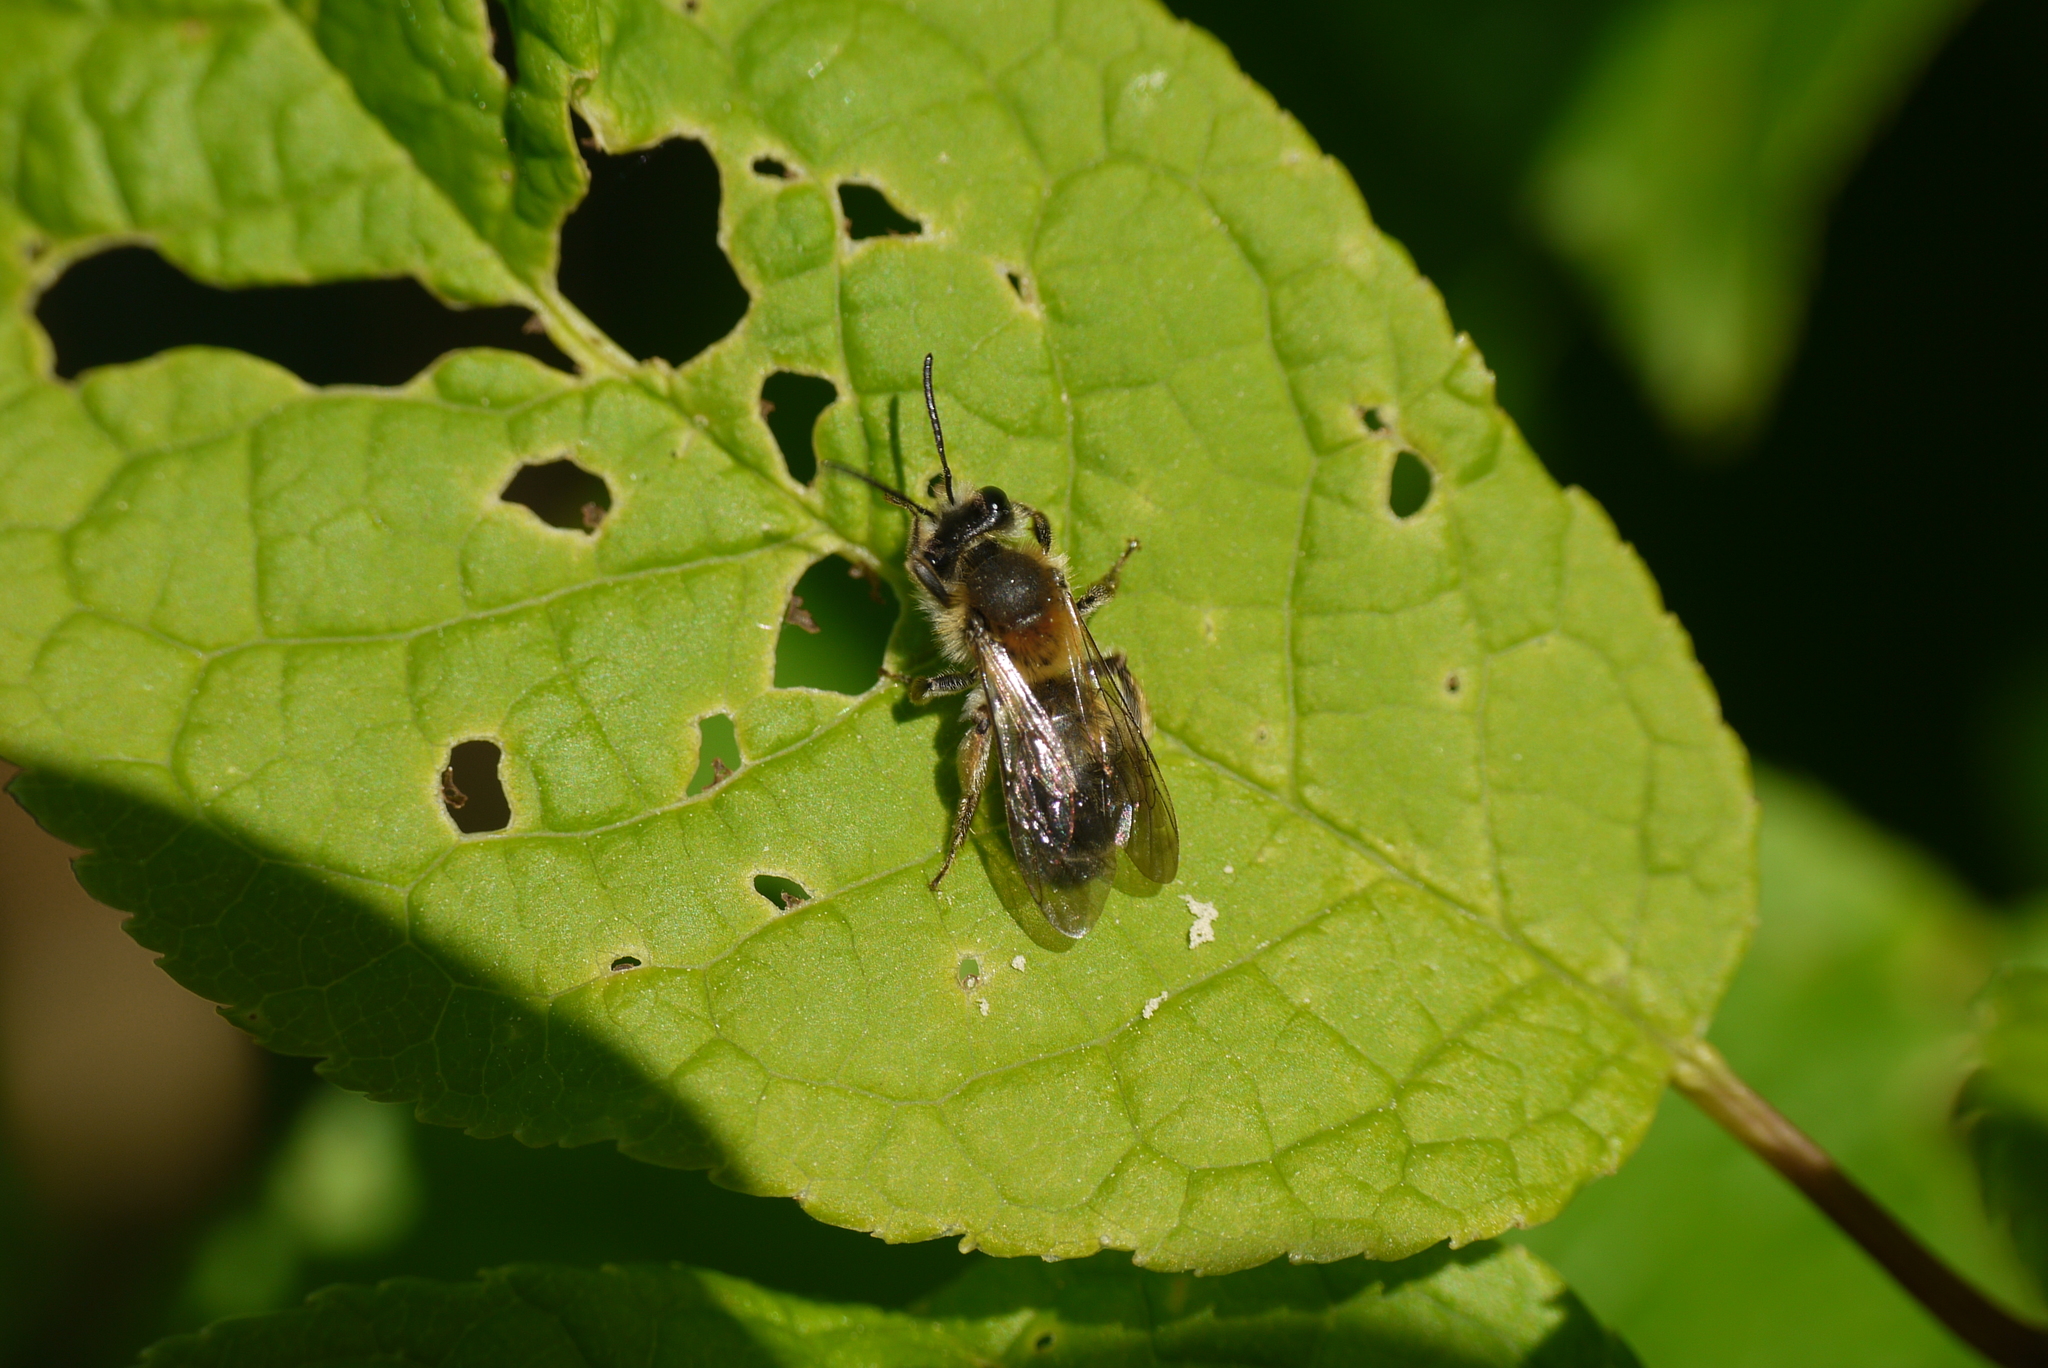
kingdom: Animalia
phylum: Arthropoda
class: Insecta
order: Hymenoptera
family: Andrenidae
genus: Andrena
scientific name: Andrena helvola
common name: Coppice mining bee
